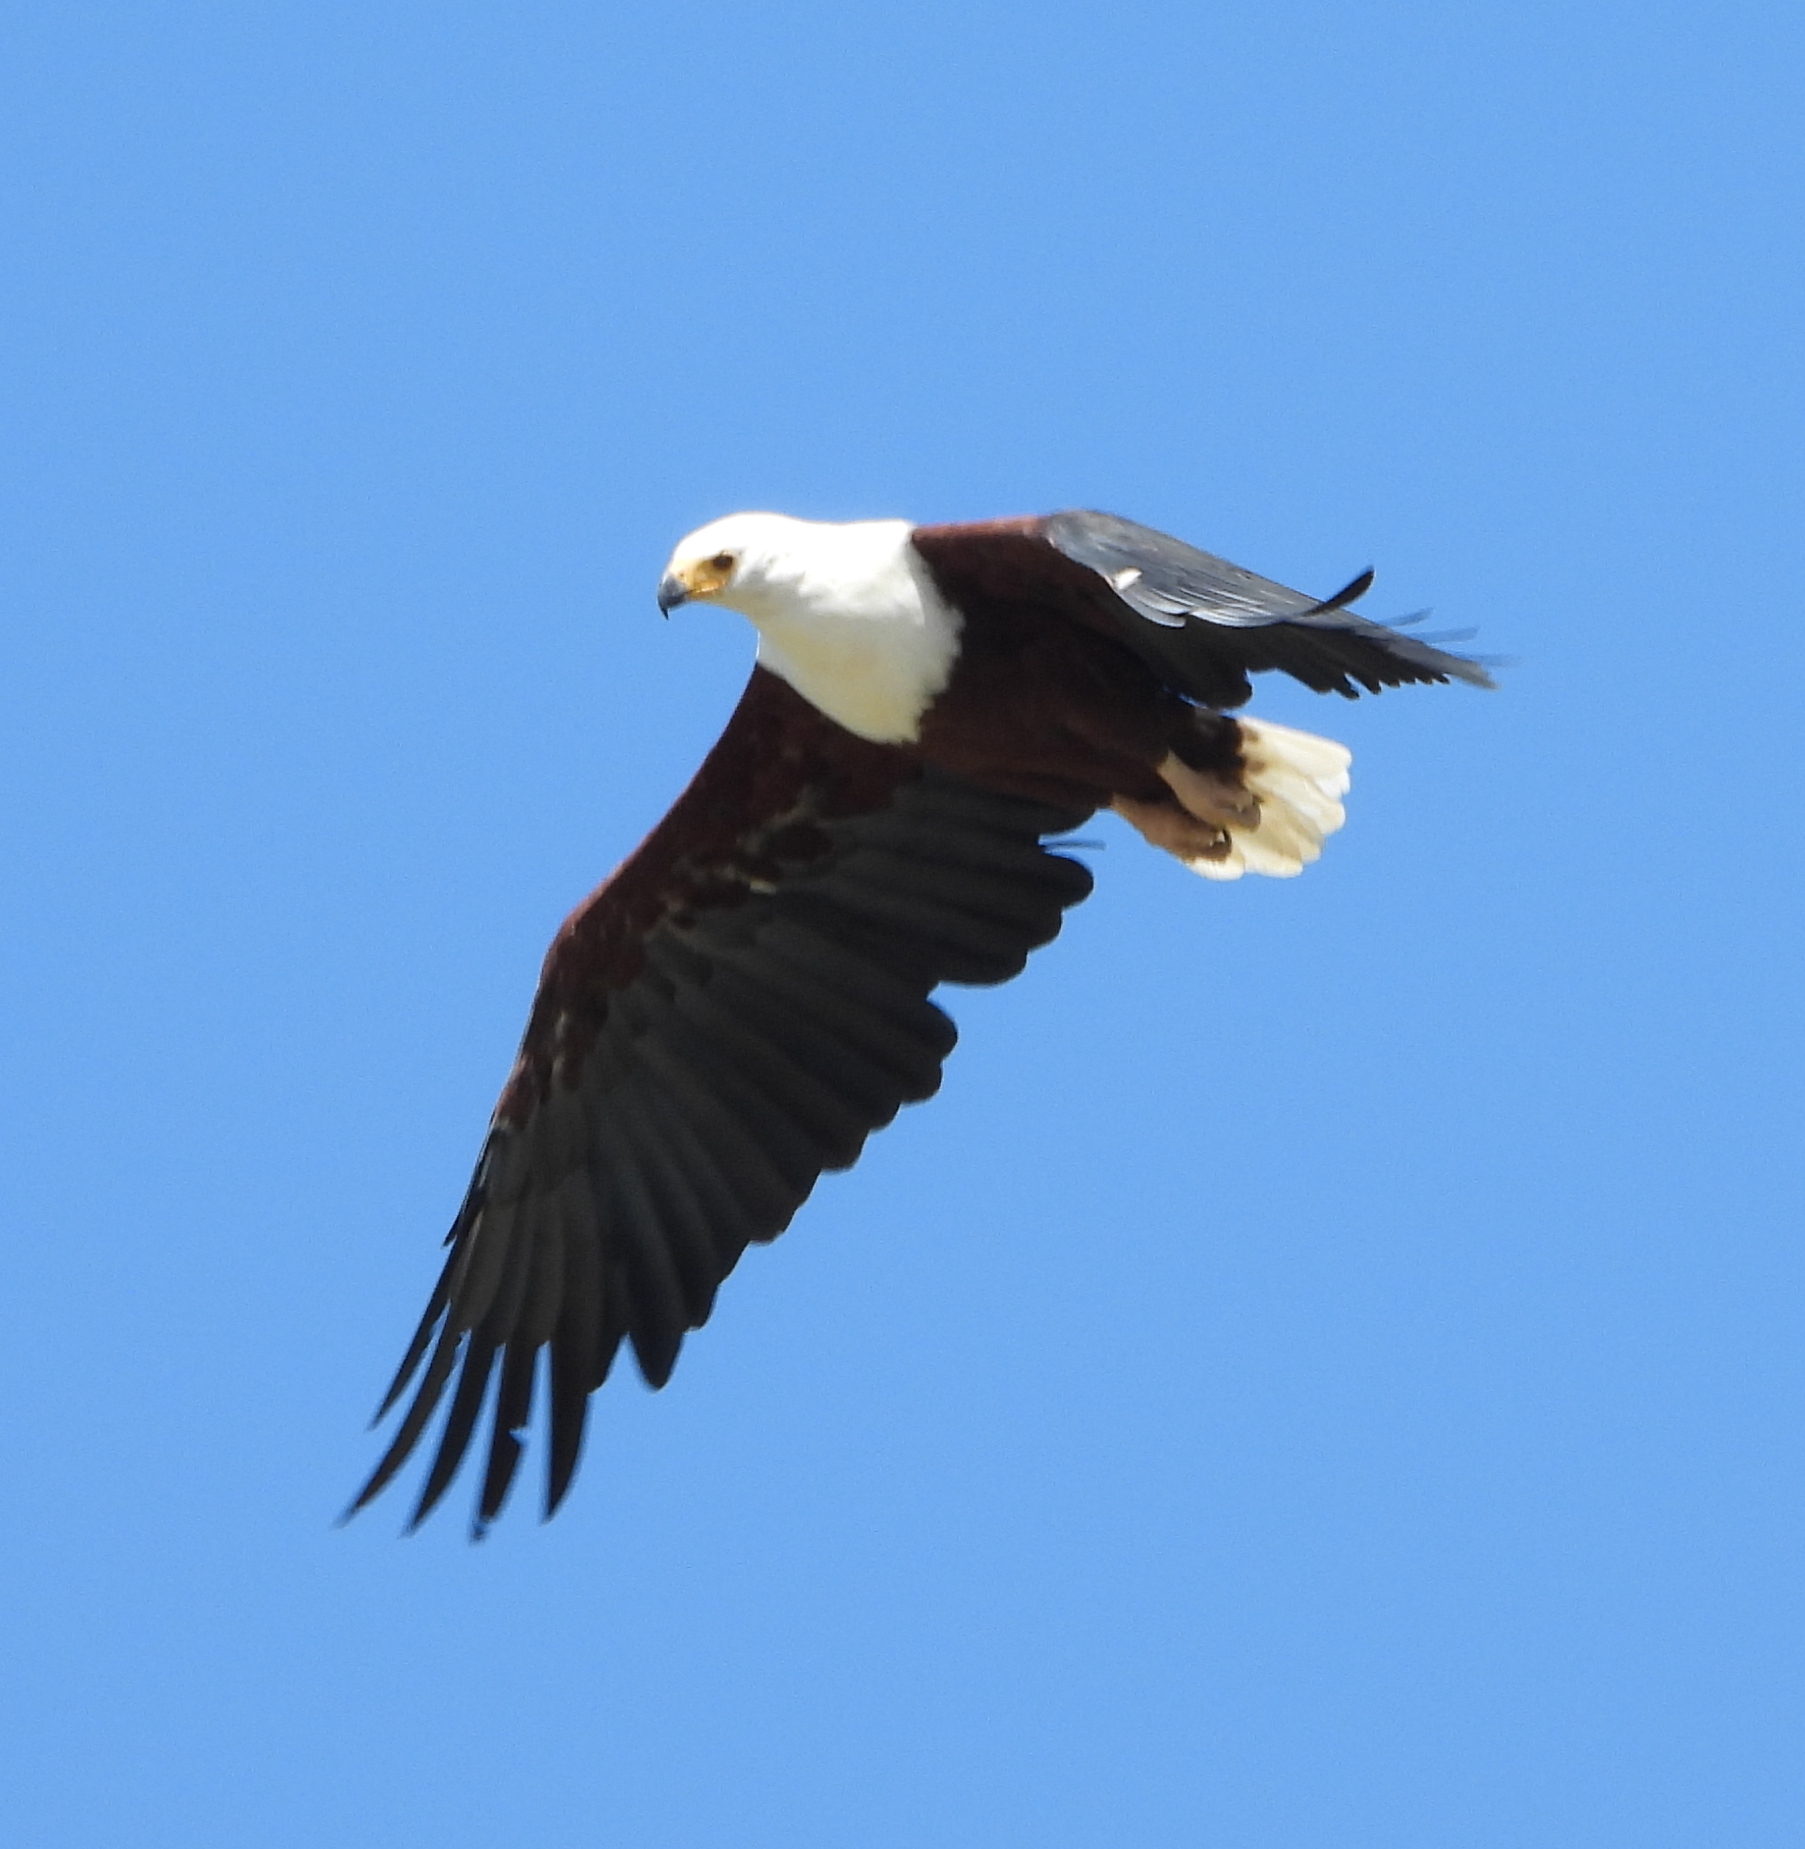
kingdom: Animalia
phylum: Chordata
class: Aves
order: Accipitriformes
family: Accipitridae
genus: Haliaeetus
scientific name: Haliaeetus vocifer
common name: African fish eagle
